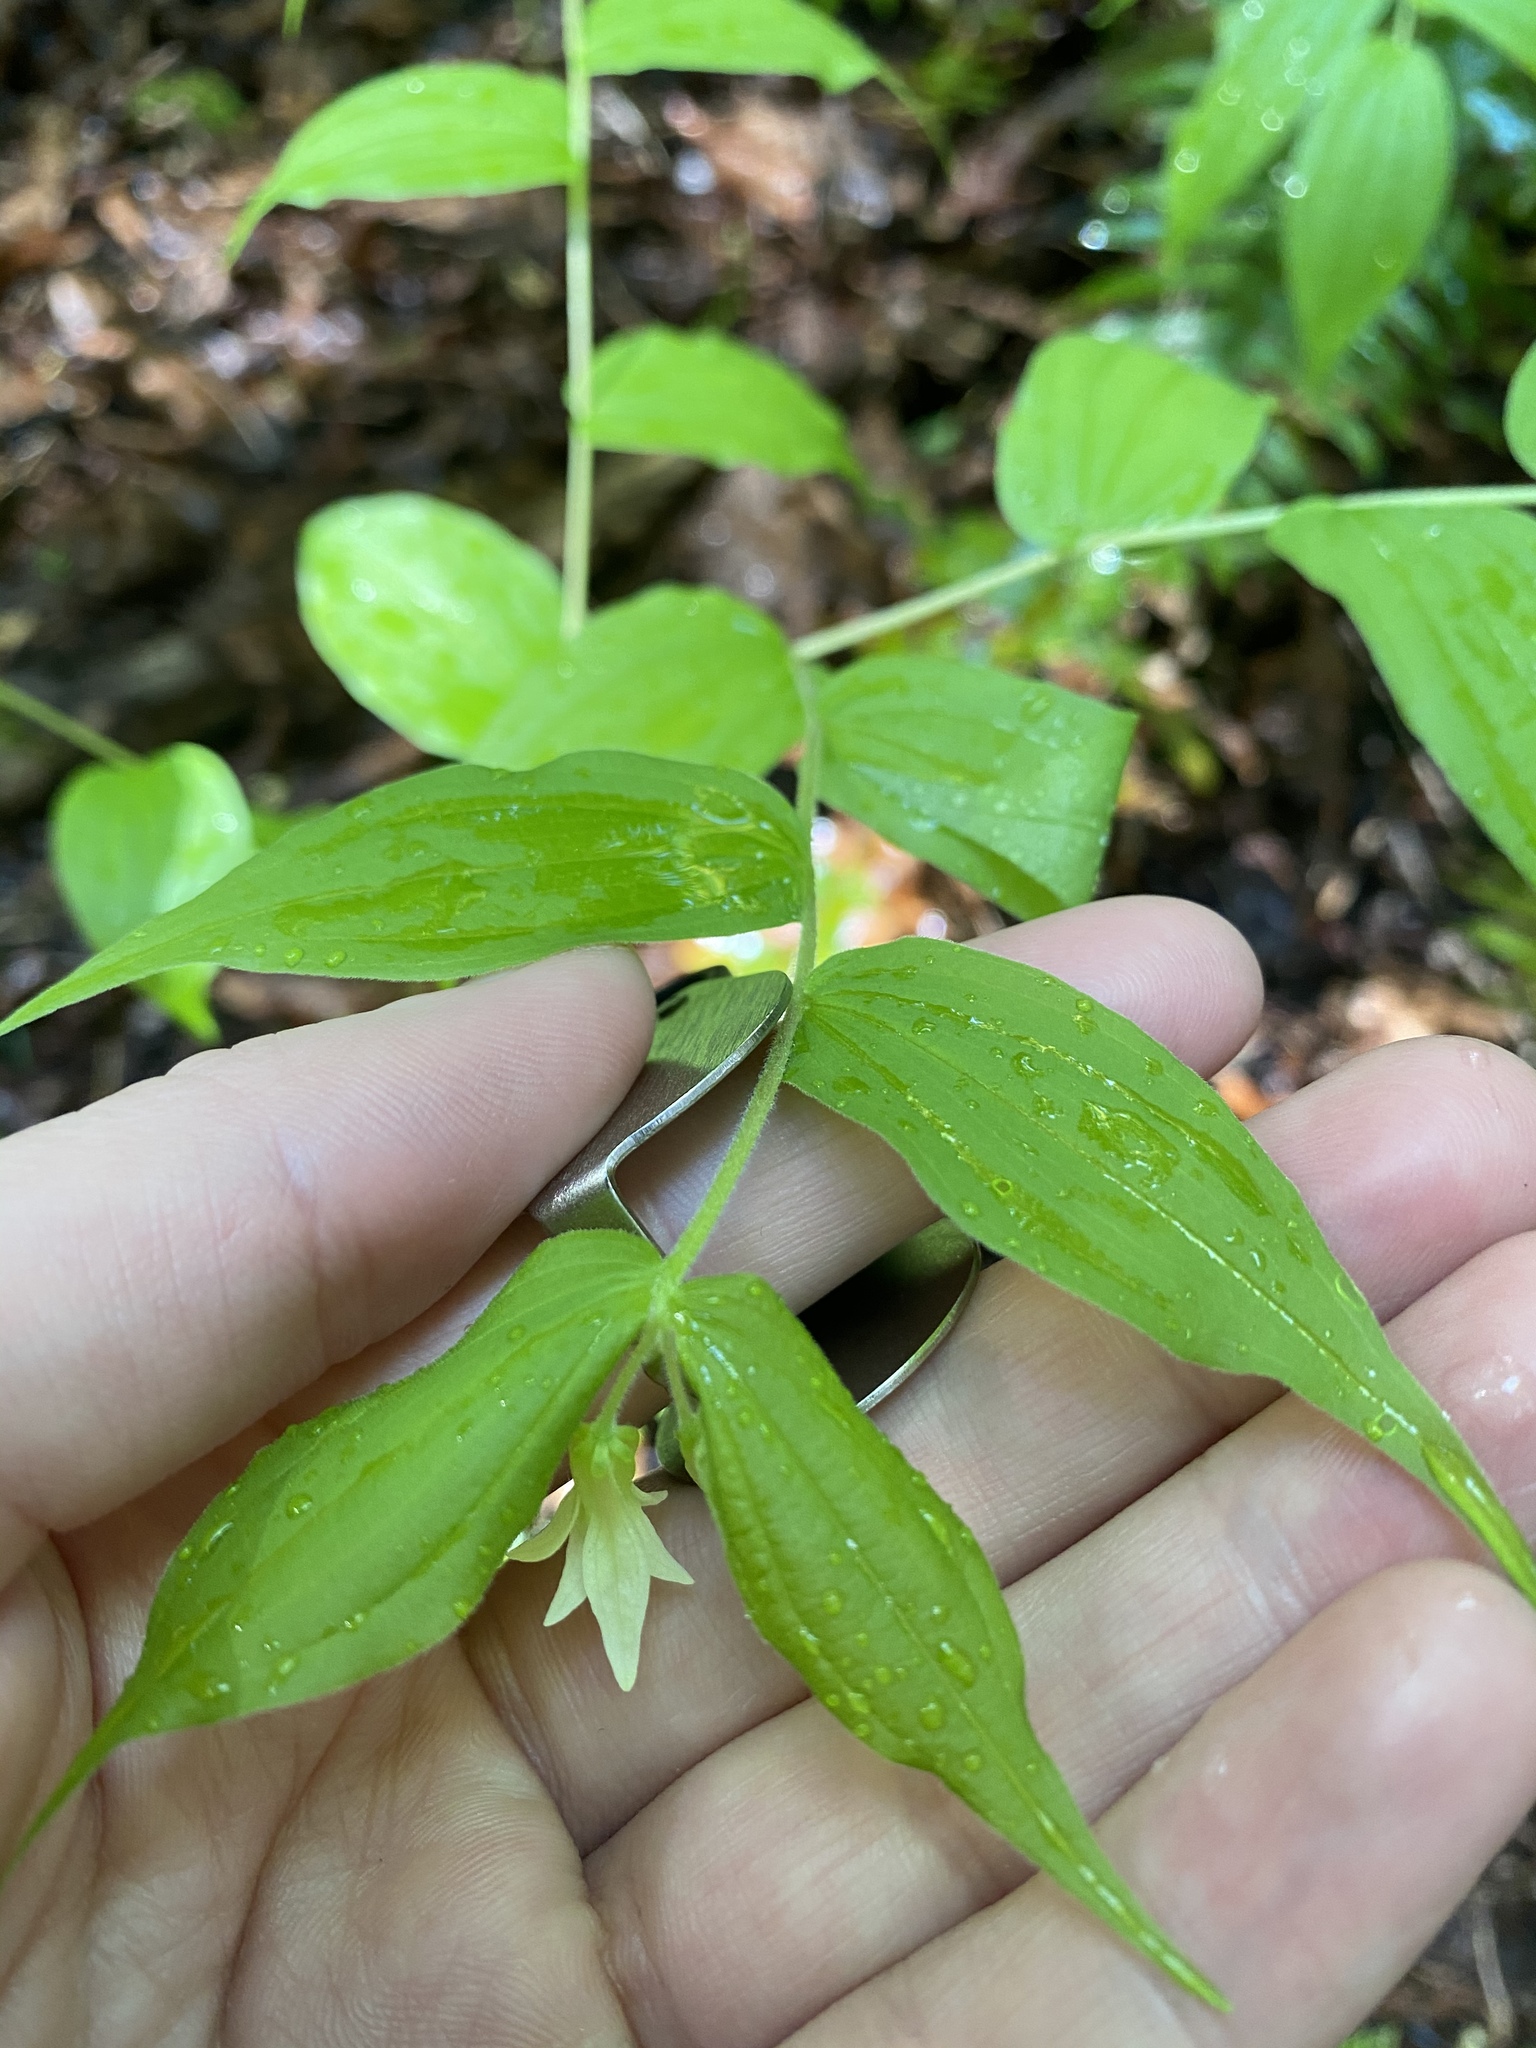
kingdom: Plantae
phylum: Tracheophyta
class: Liliopsida
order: Liliales
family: Liliaceae
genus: Prosartes
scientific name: Prosartes hookeri
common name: Fairy-bells
